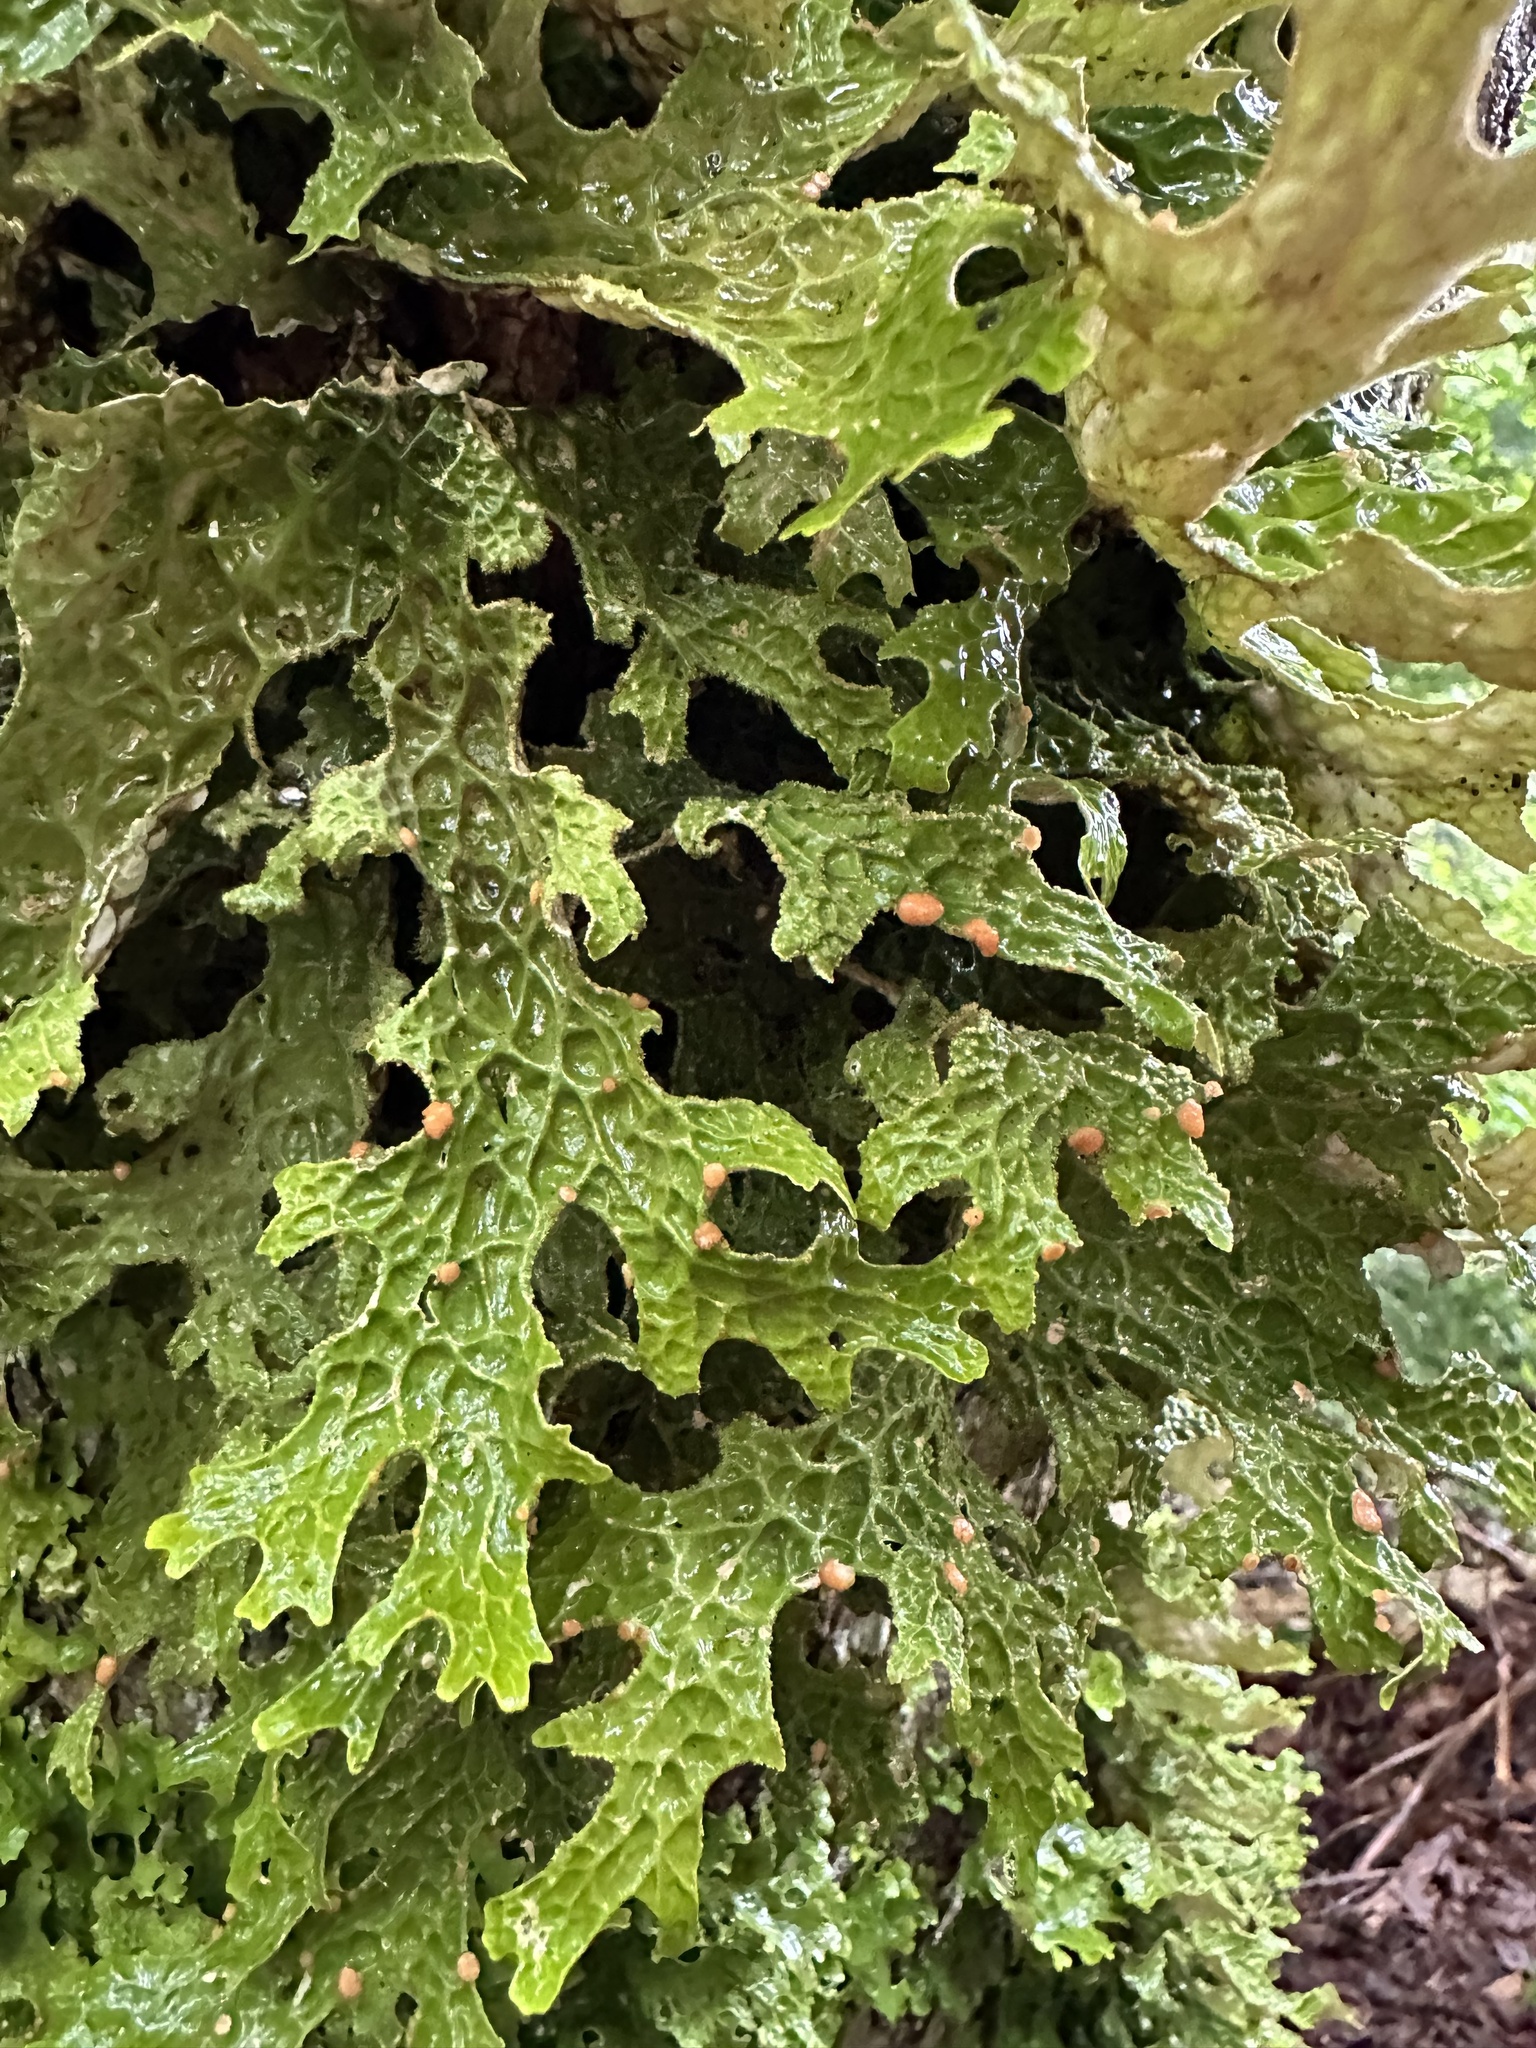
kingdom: Fungi
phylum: Ascomycota
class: Lecanoromycetes
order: Peltigerales
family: Lobariaceae
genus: Lobaria
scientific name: Lobaria pulmonaria
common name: Lungwort
